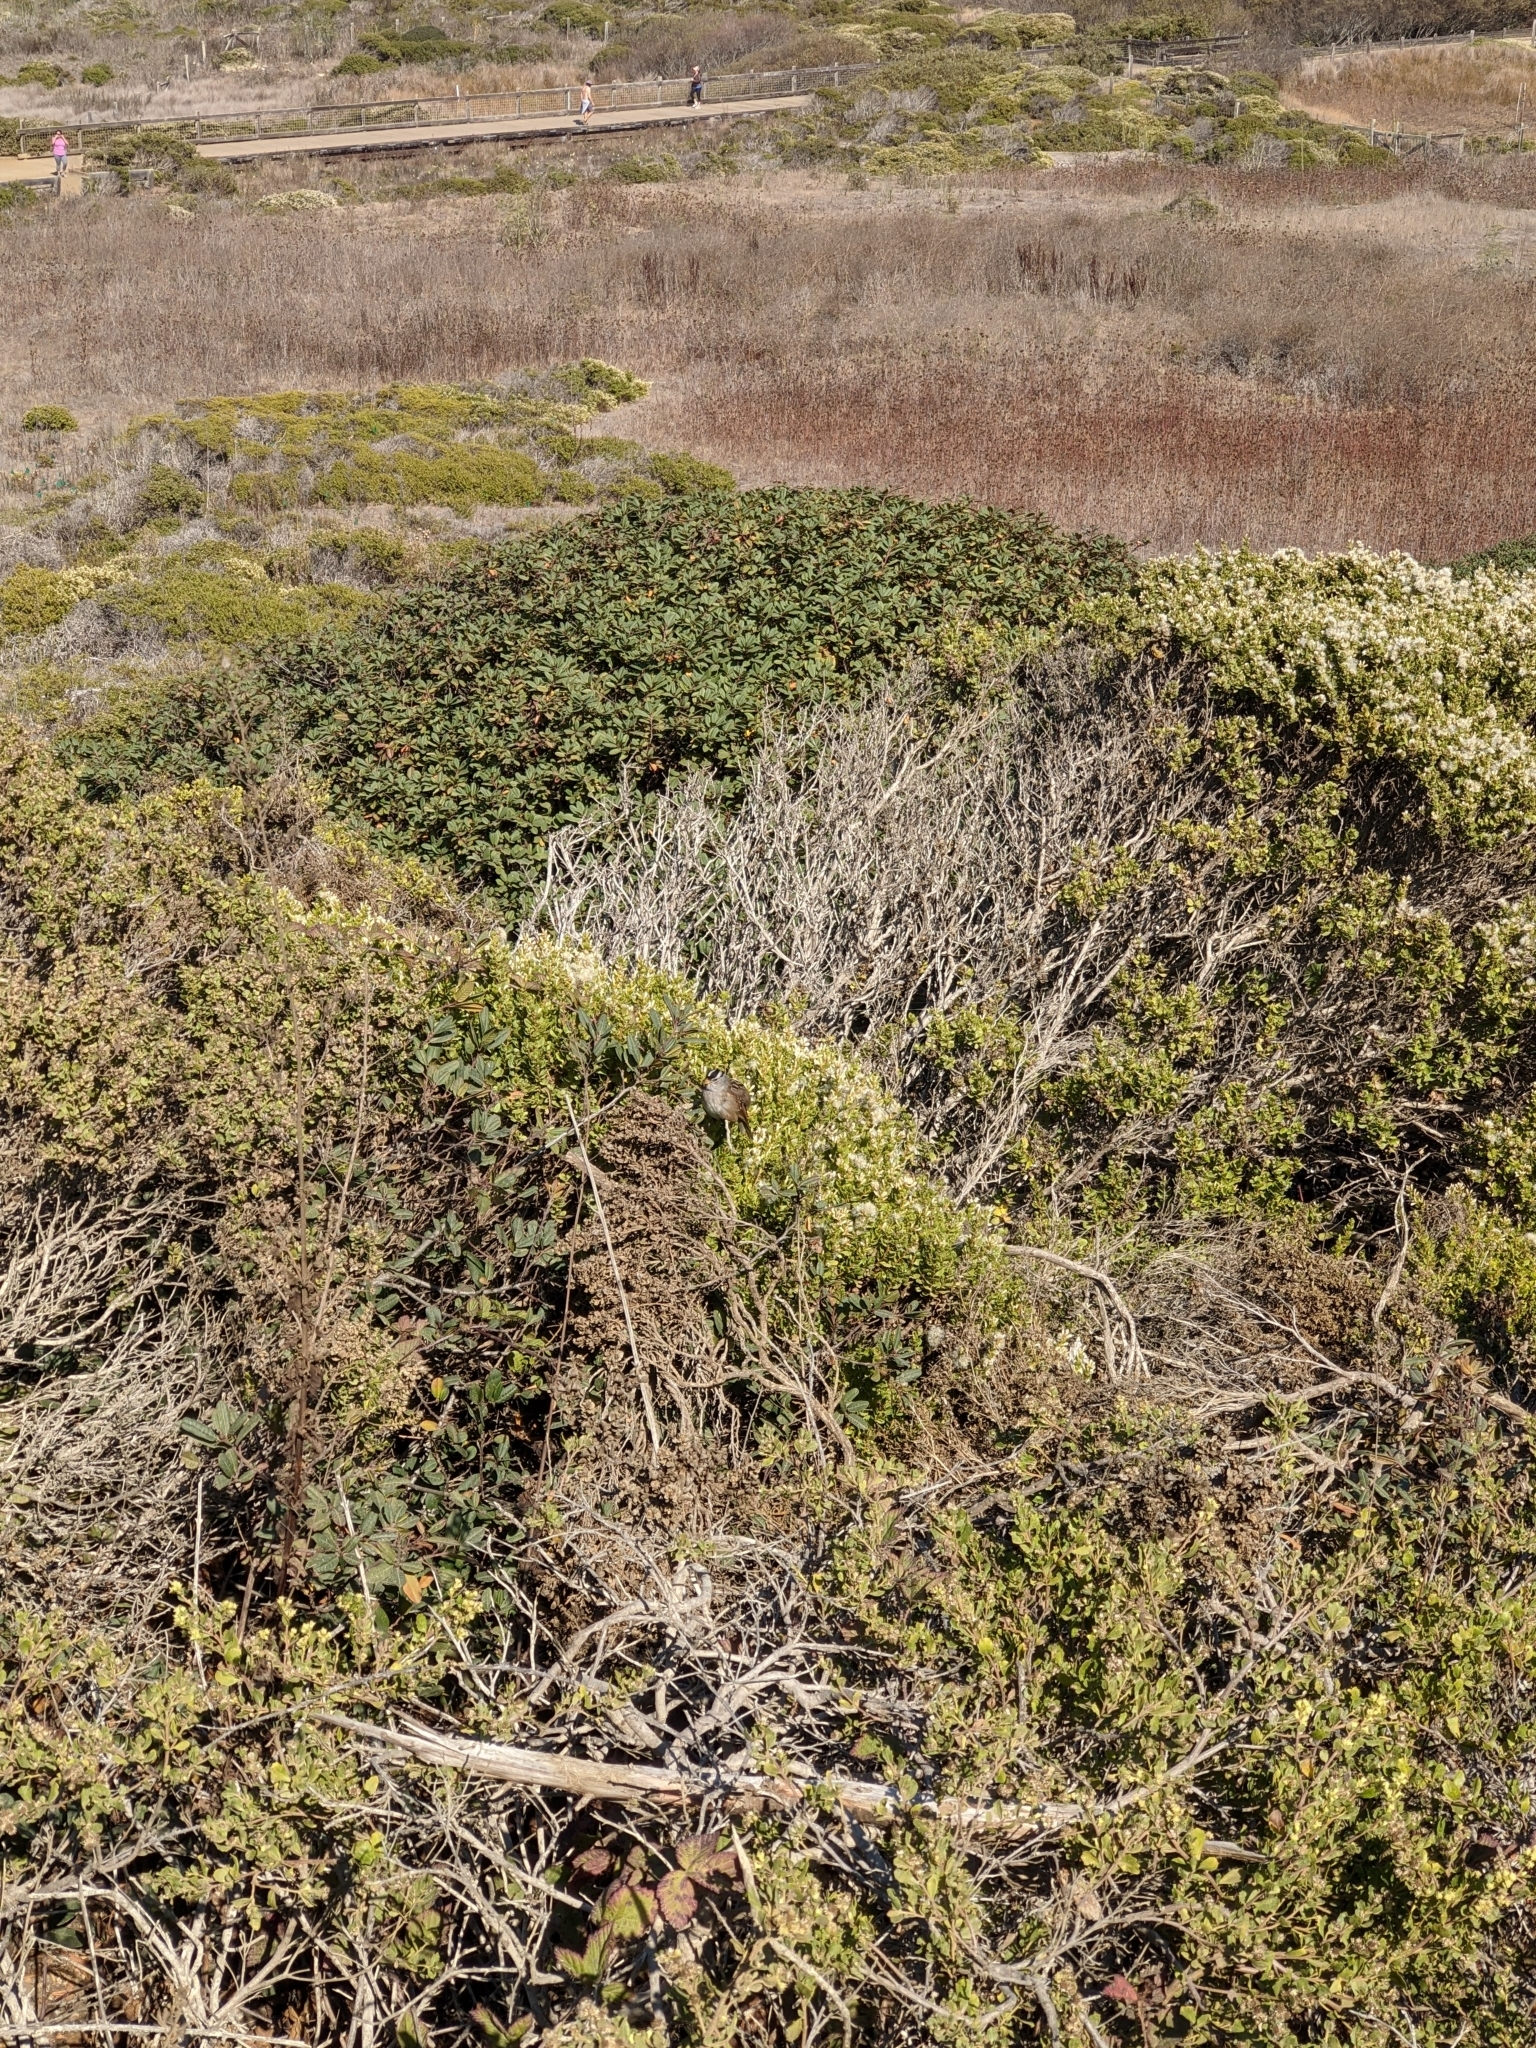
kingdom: Animalia
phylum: Chordata
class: Aves
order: Passeriformes
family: Passerellidae
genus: Zonotrichia
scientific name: Zonotrichia leucophrys
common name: White-crowned sparrow
